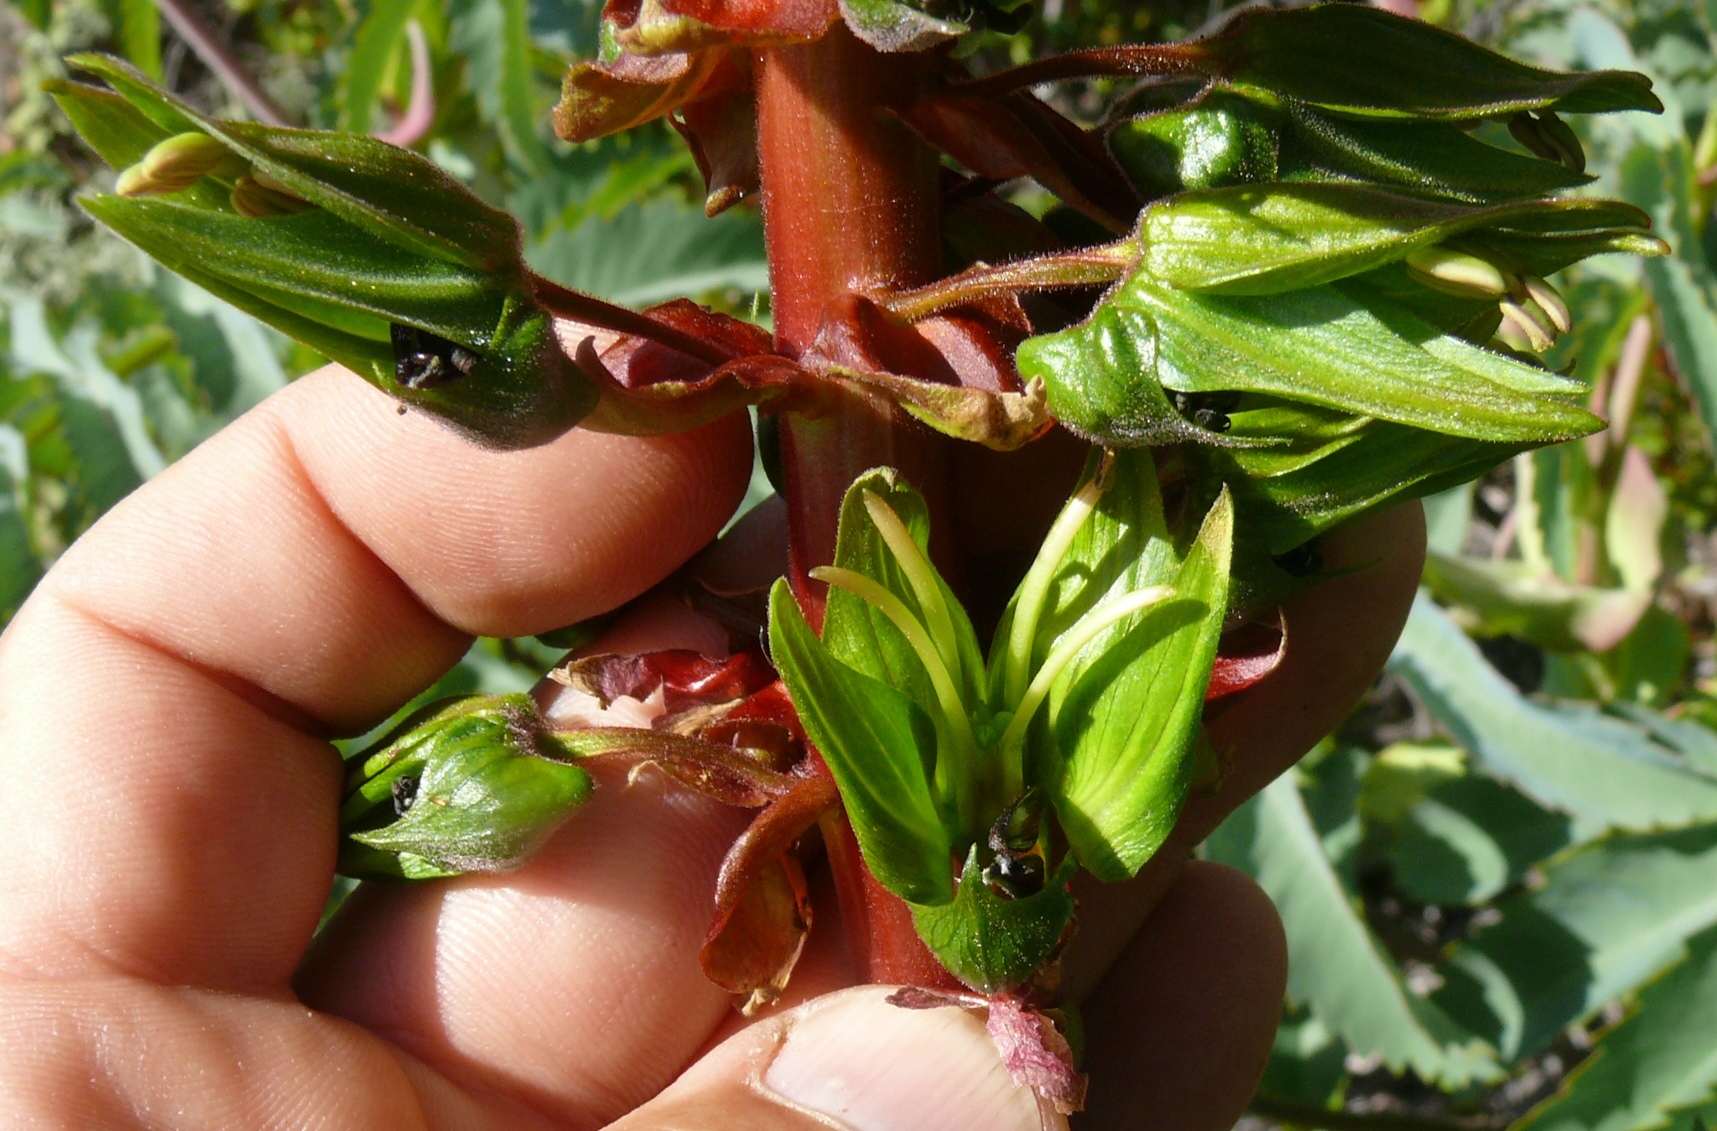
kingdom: Plantae
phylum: Tracheophyta
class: Magnoliopsida
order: Geraniales
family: Melianthaceae
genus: Melianthus
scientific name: Melianthus major
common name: Honey-flower
